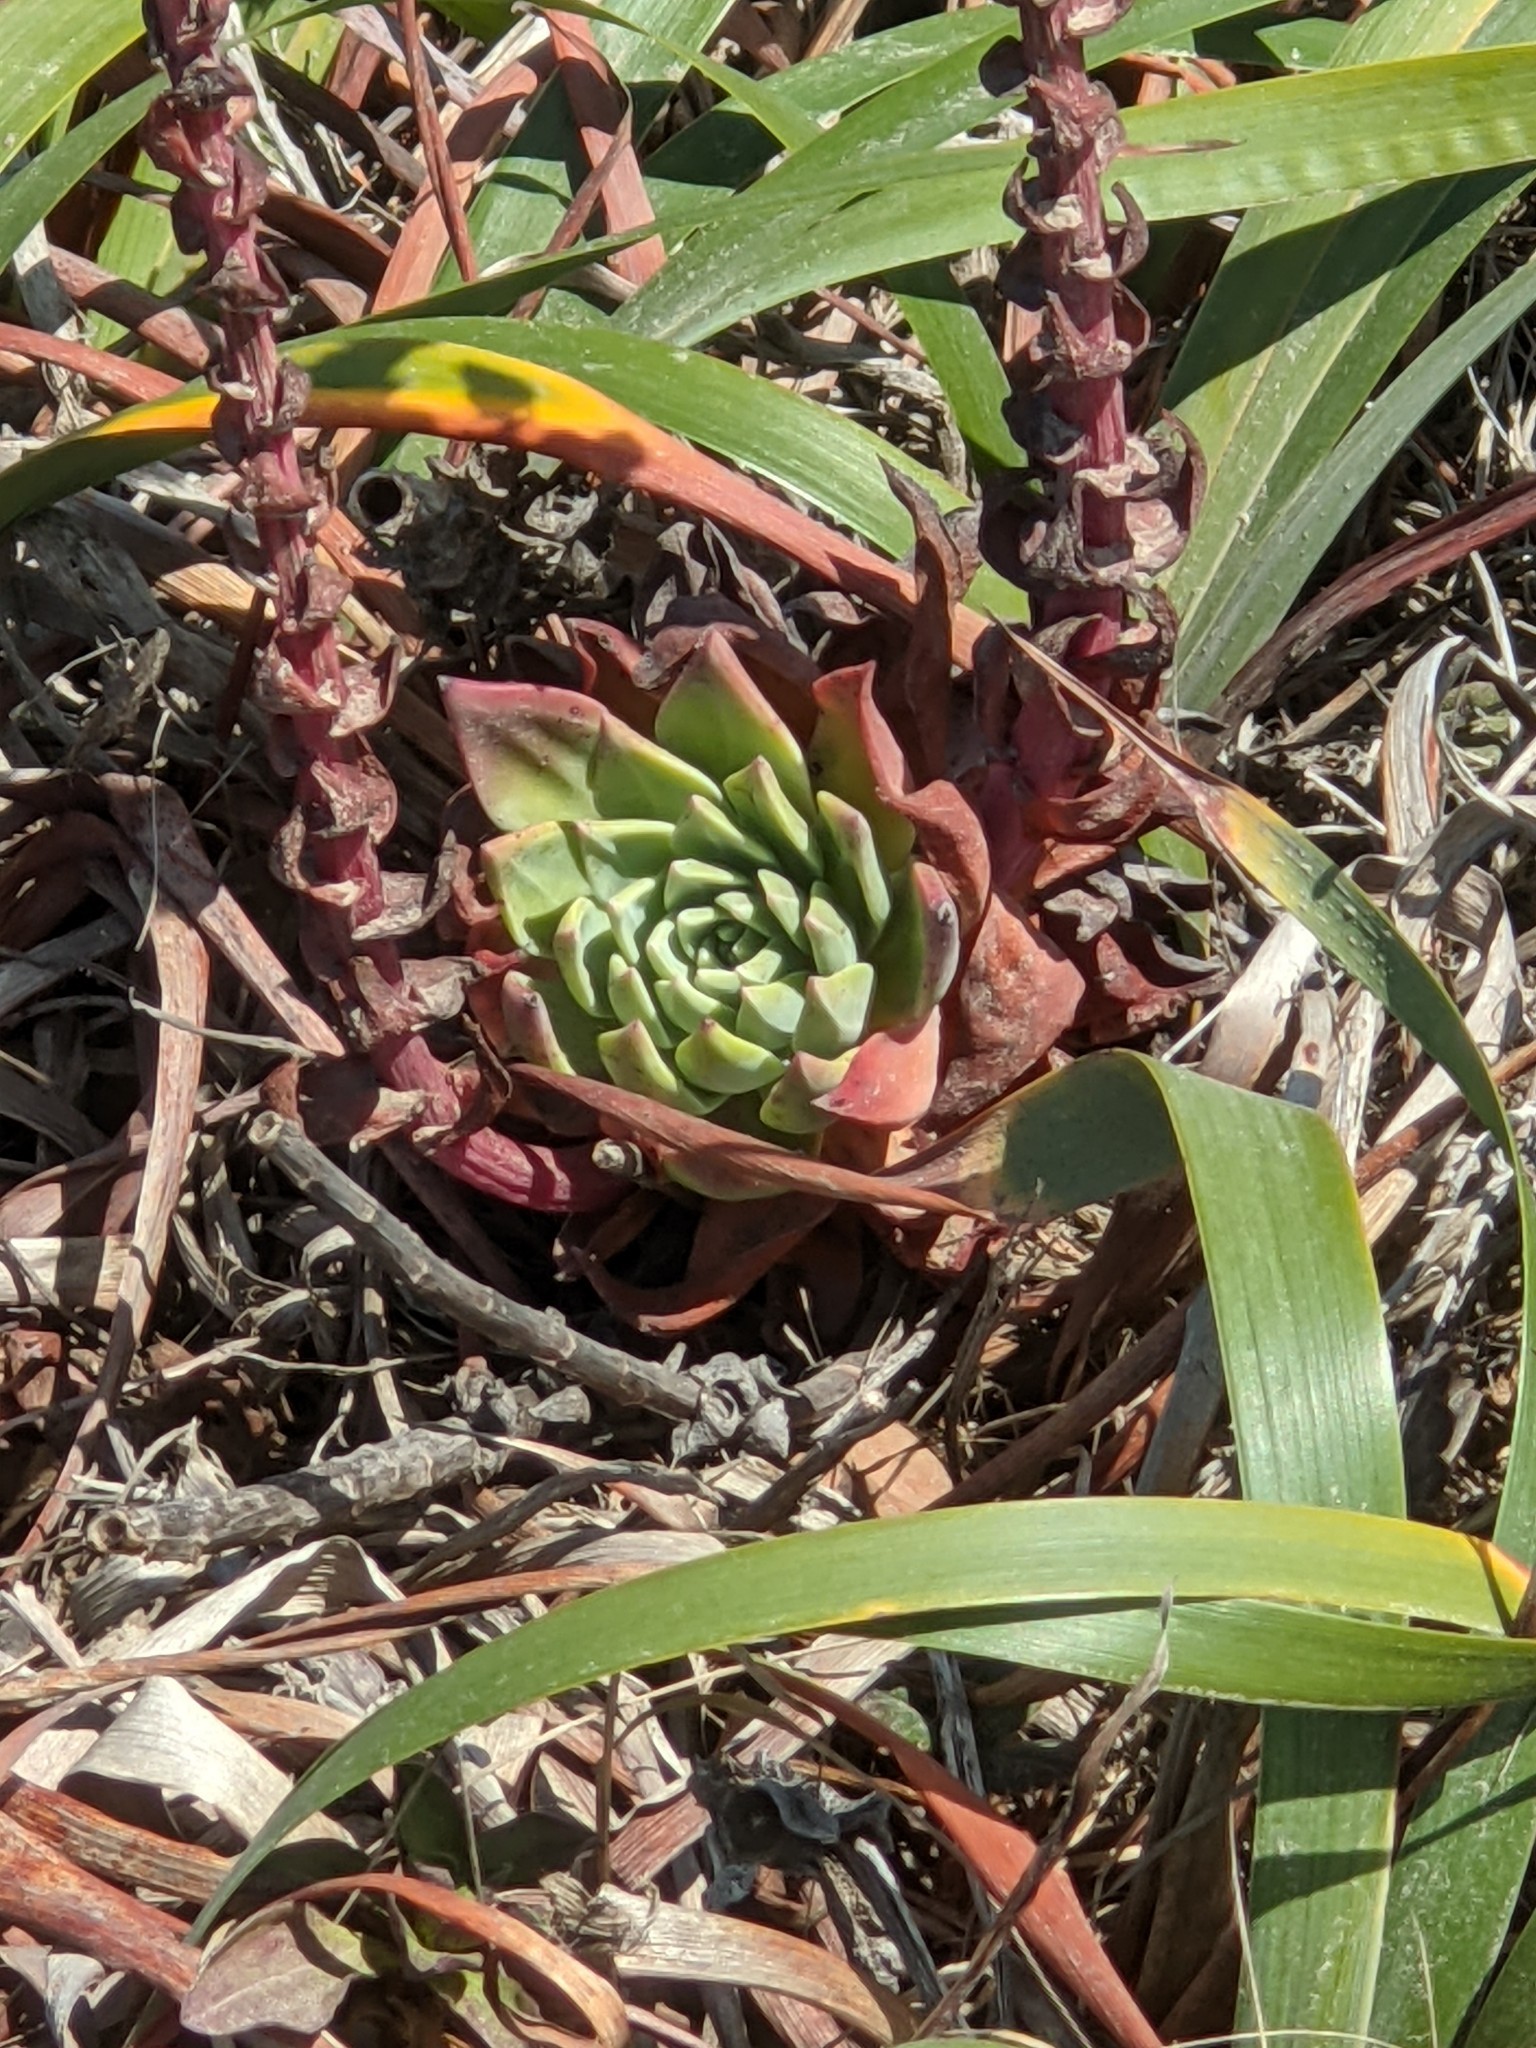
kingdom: Plantae
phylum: Tracheophyta
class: Magnoliopsida
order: Saxifragales
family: Crassulaceae
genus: Dudleya
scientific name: Dudleya farinosa
